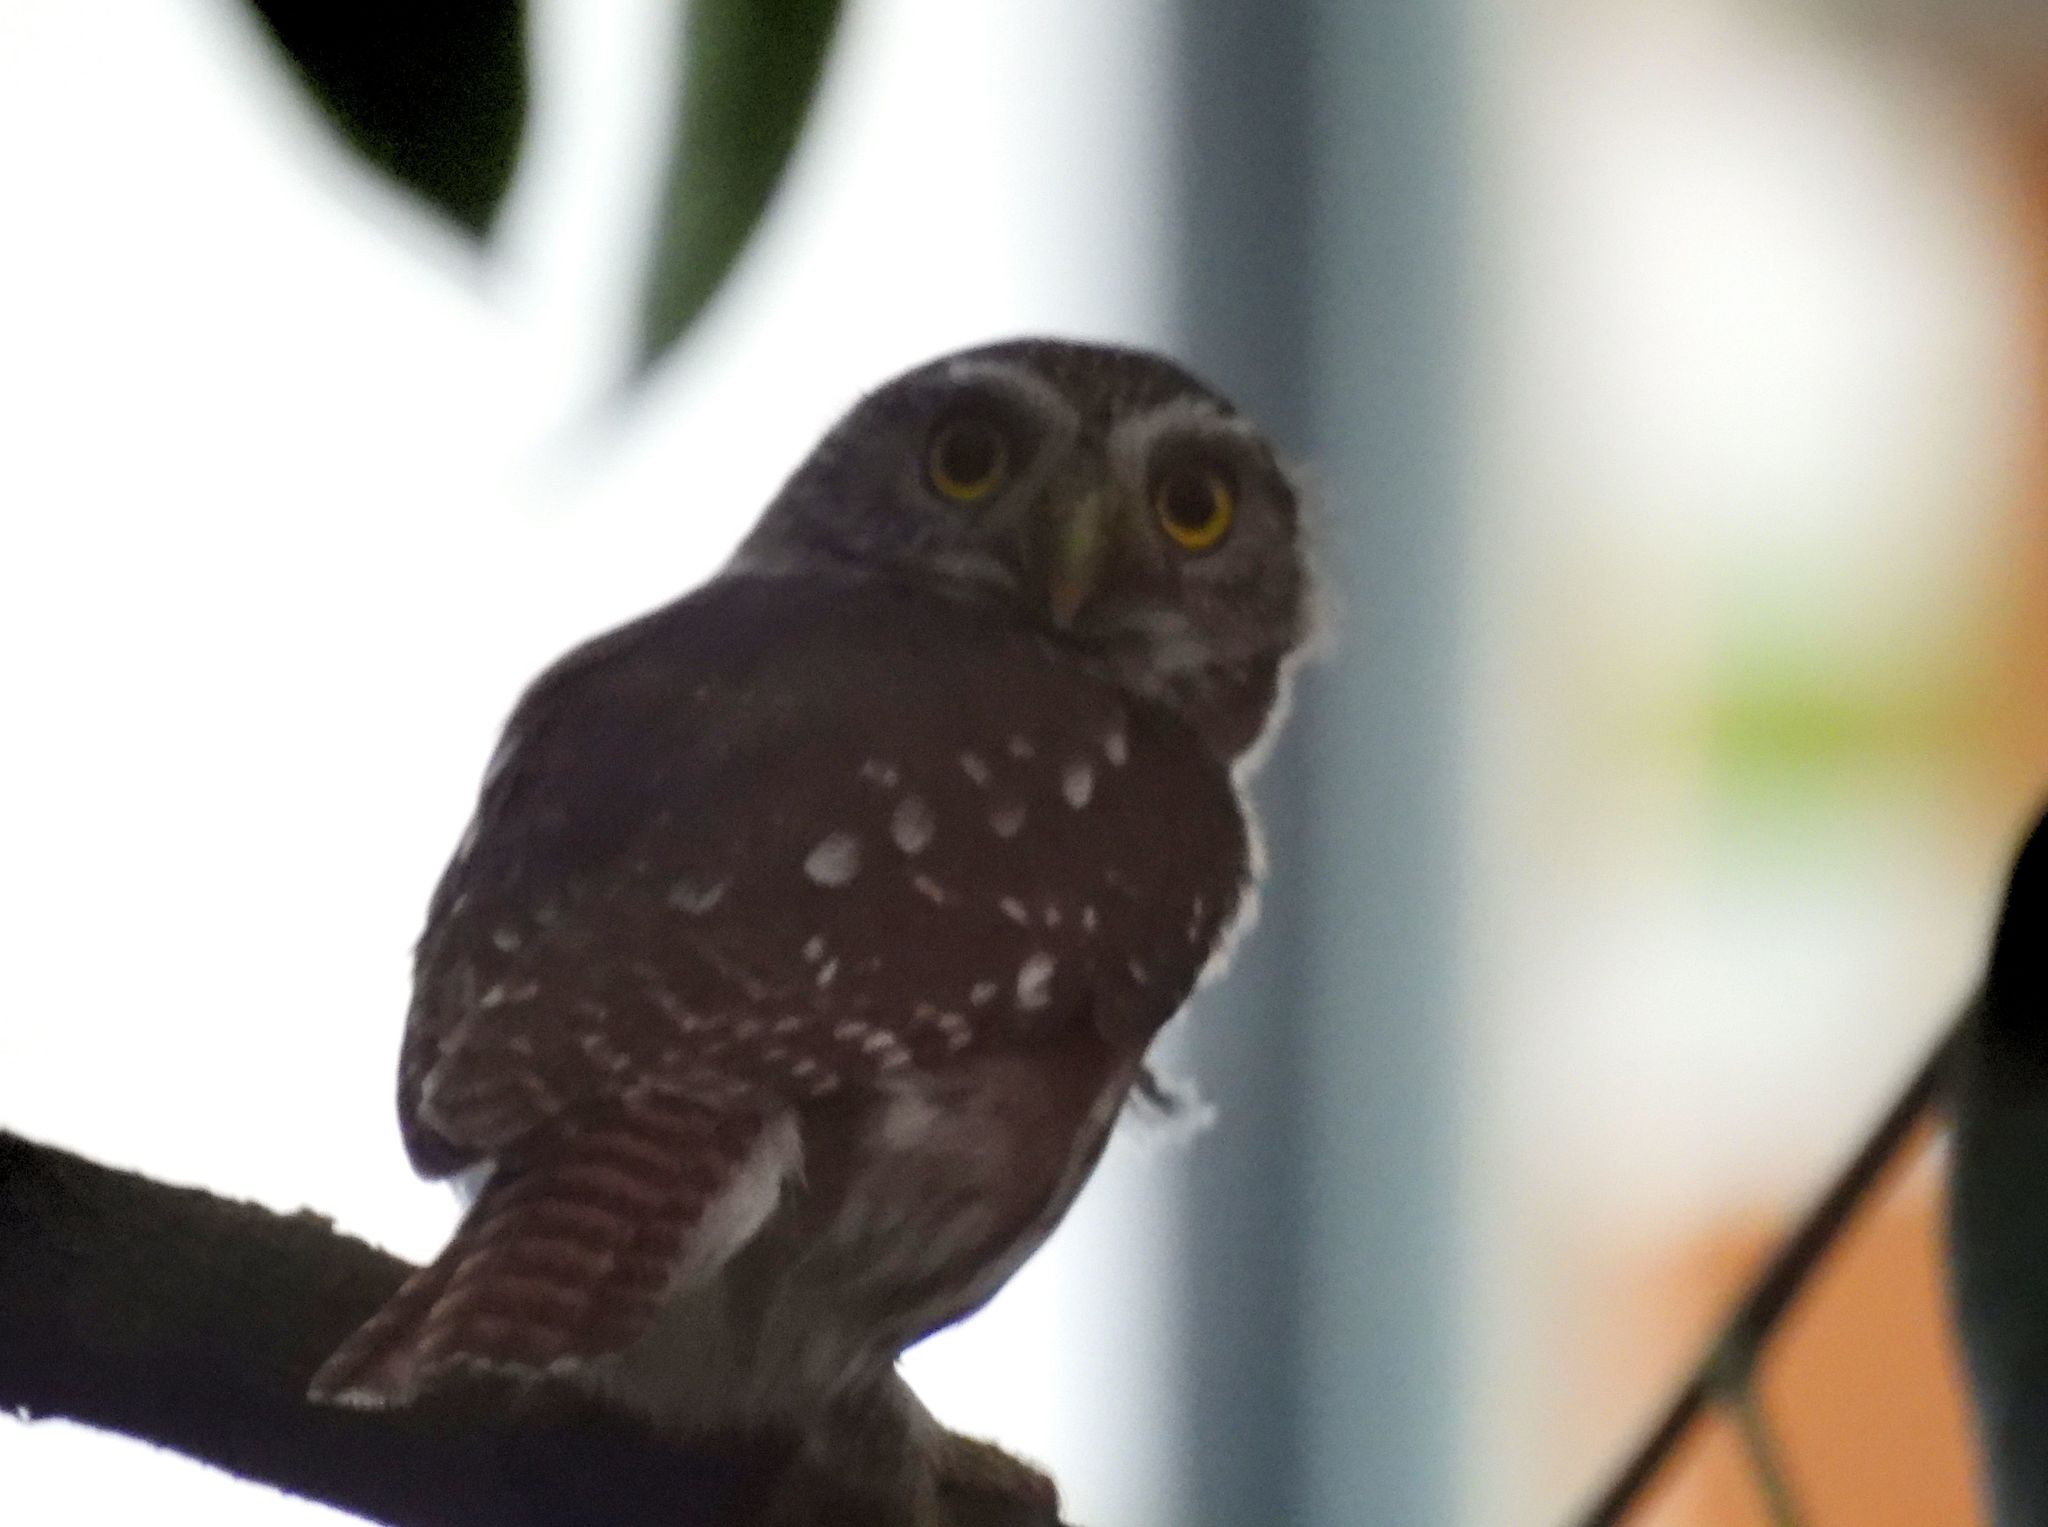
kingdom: Animalia
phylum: Chordata
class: Aves
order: Strigiformes
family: Strigidae
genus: Glaucidium
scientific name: Glaucidium brasilianum
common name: Ferruginous pygmy-owl
